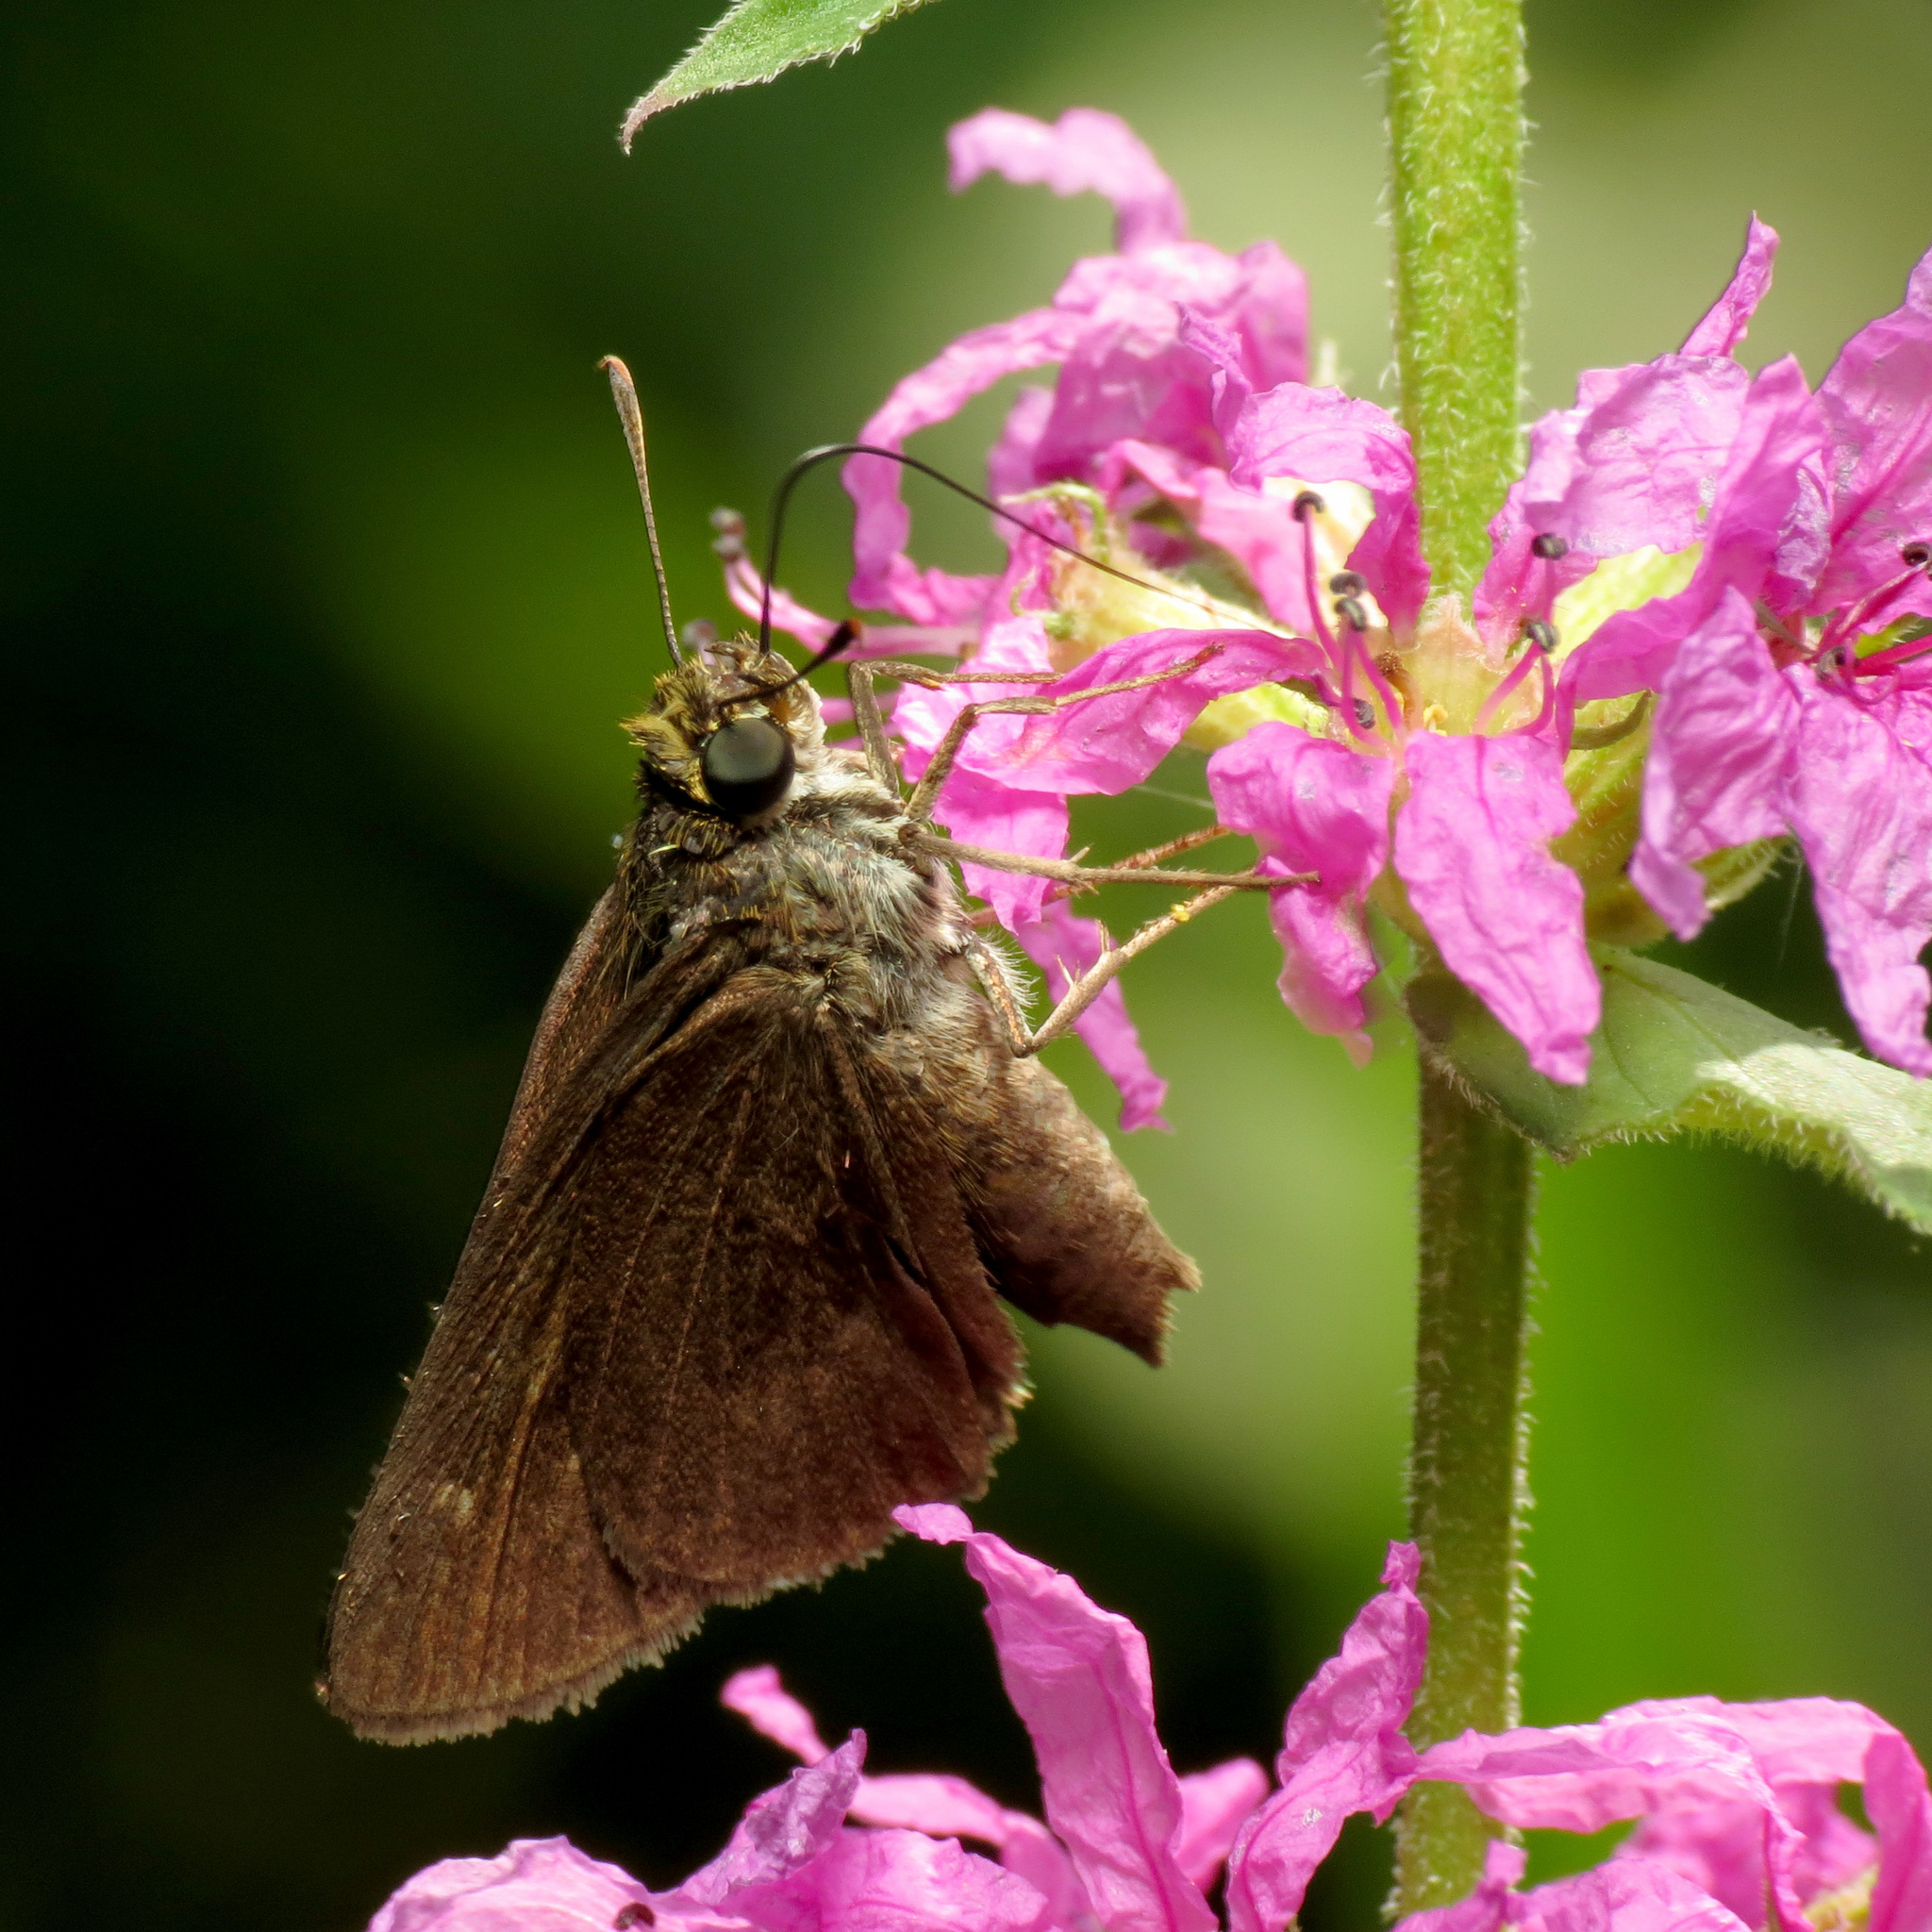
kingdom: Animalia
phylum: Arthropoda
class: Insecta
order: Lepidoptera
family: Hesperiidae
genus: Euphyes
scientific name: Euphyes vestris
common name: Dun skipper
